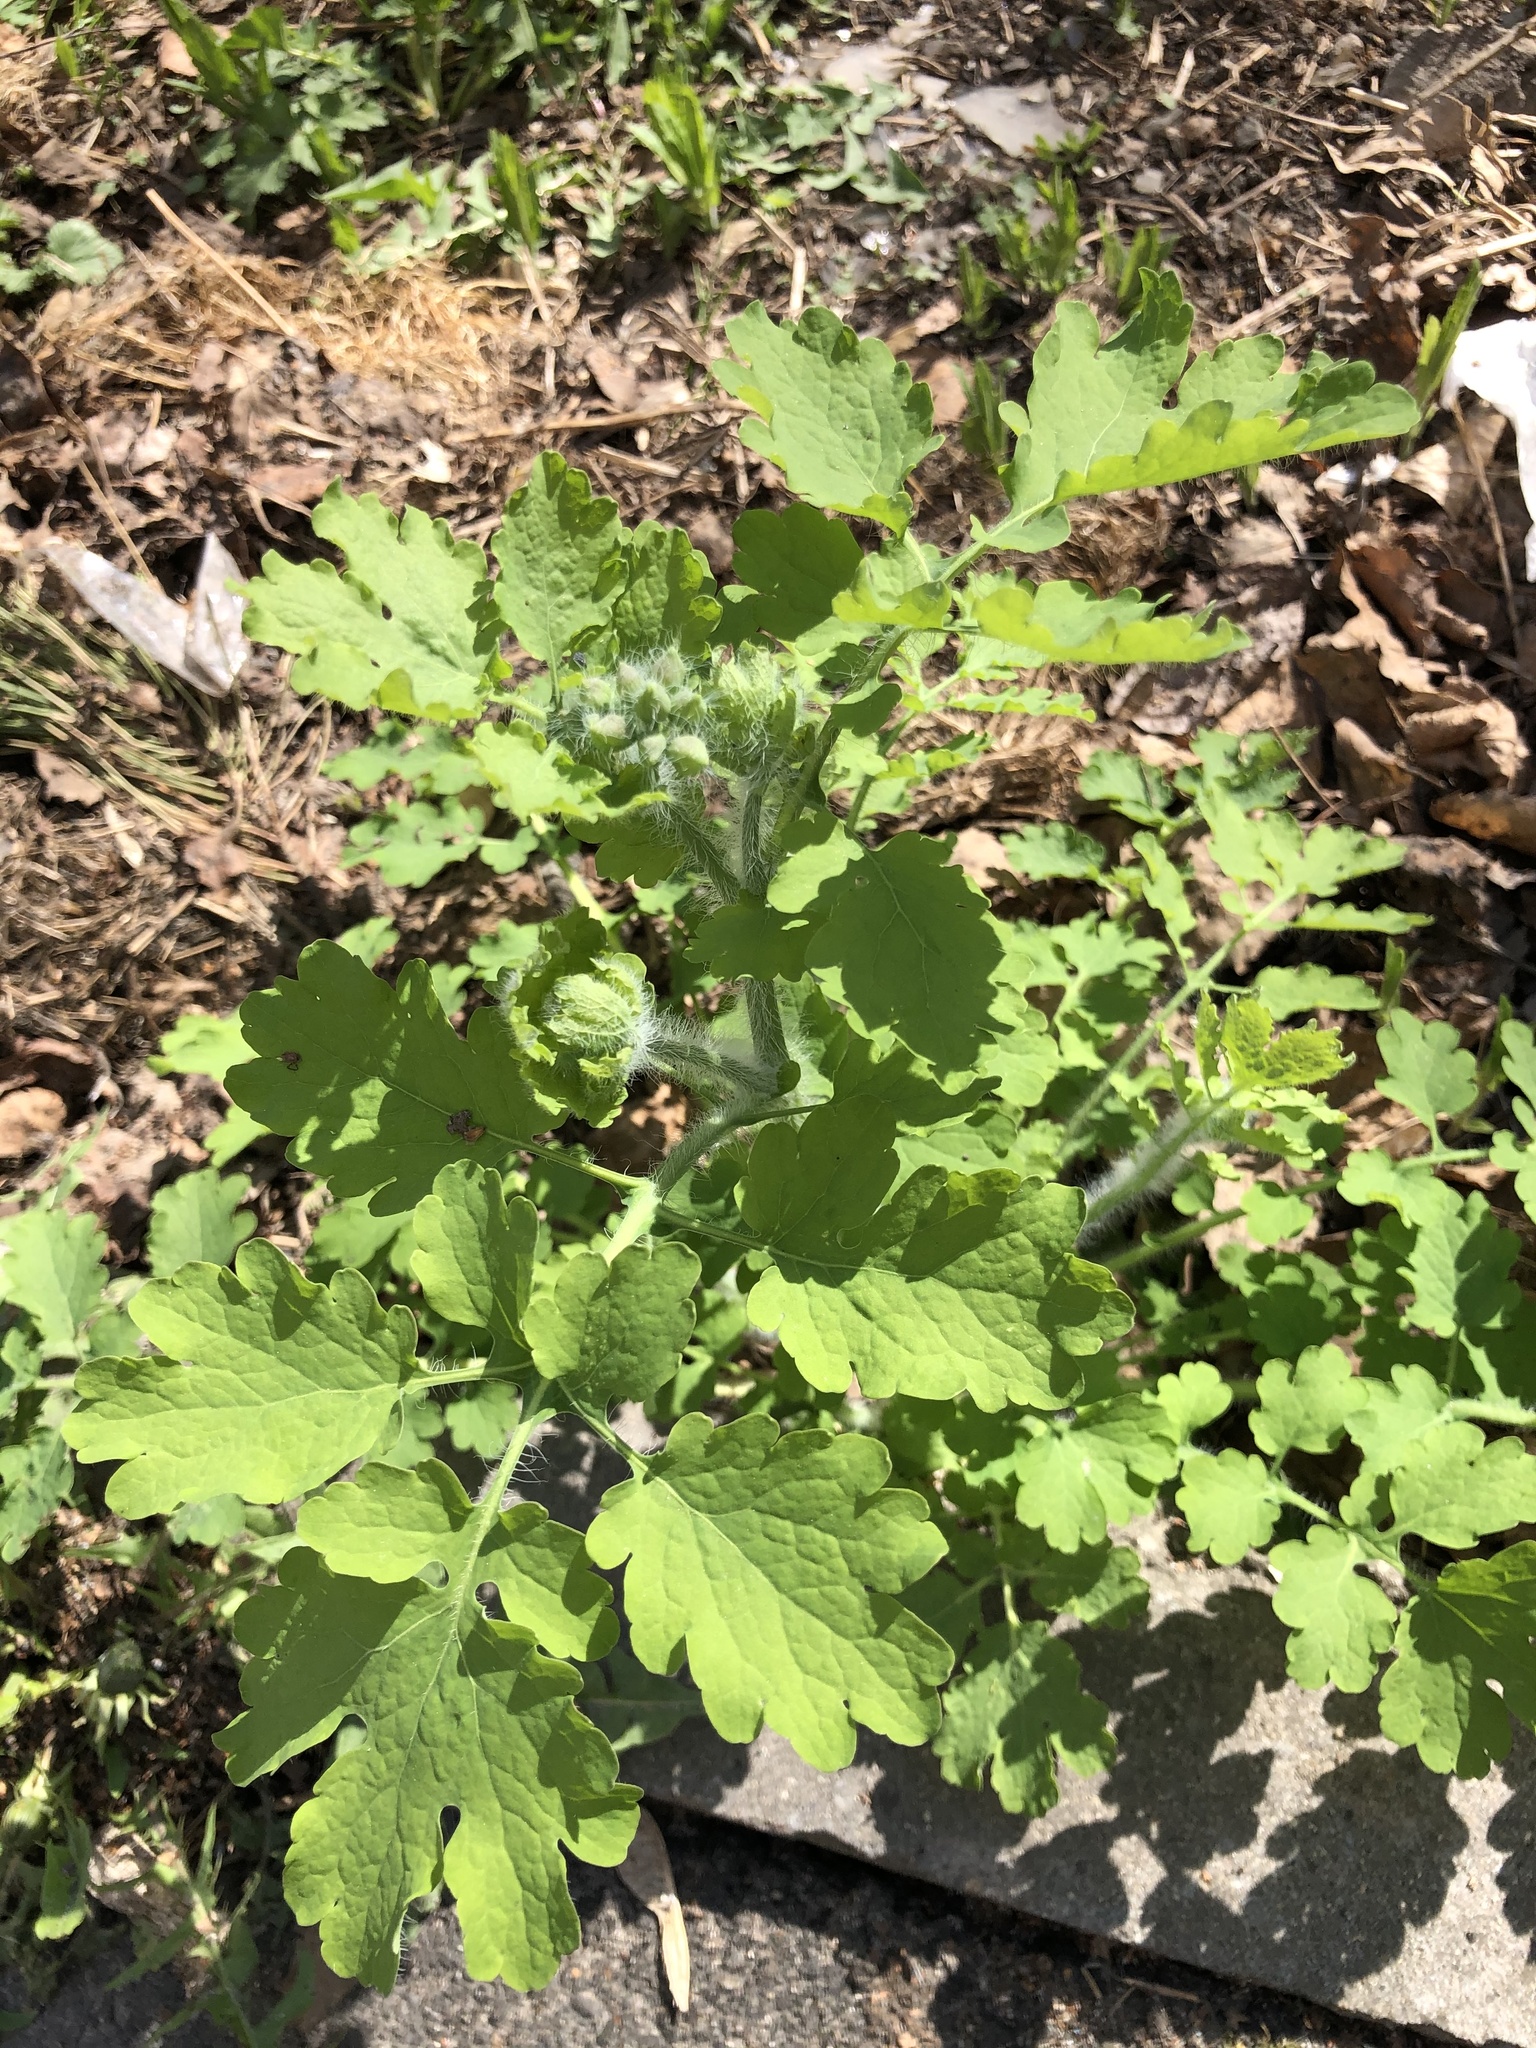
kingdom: Plantae
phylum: Tracheophyta
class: Magnoliopsida
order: Ranunculales
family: Papaveraceae
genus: Chelidonium
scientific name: Chelidonium majus
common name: Greater celandine
